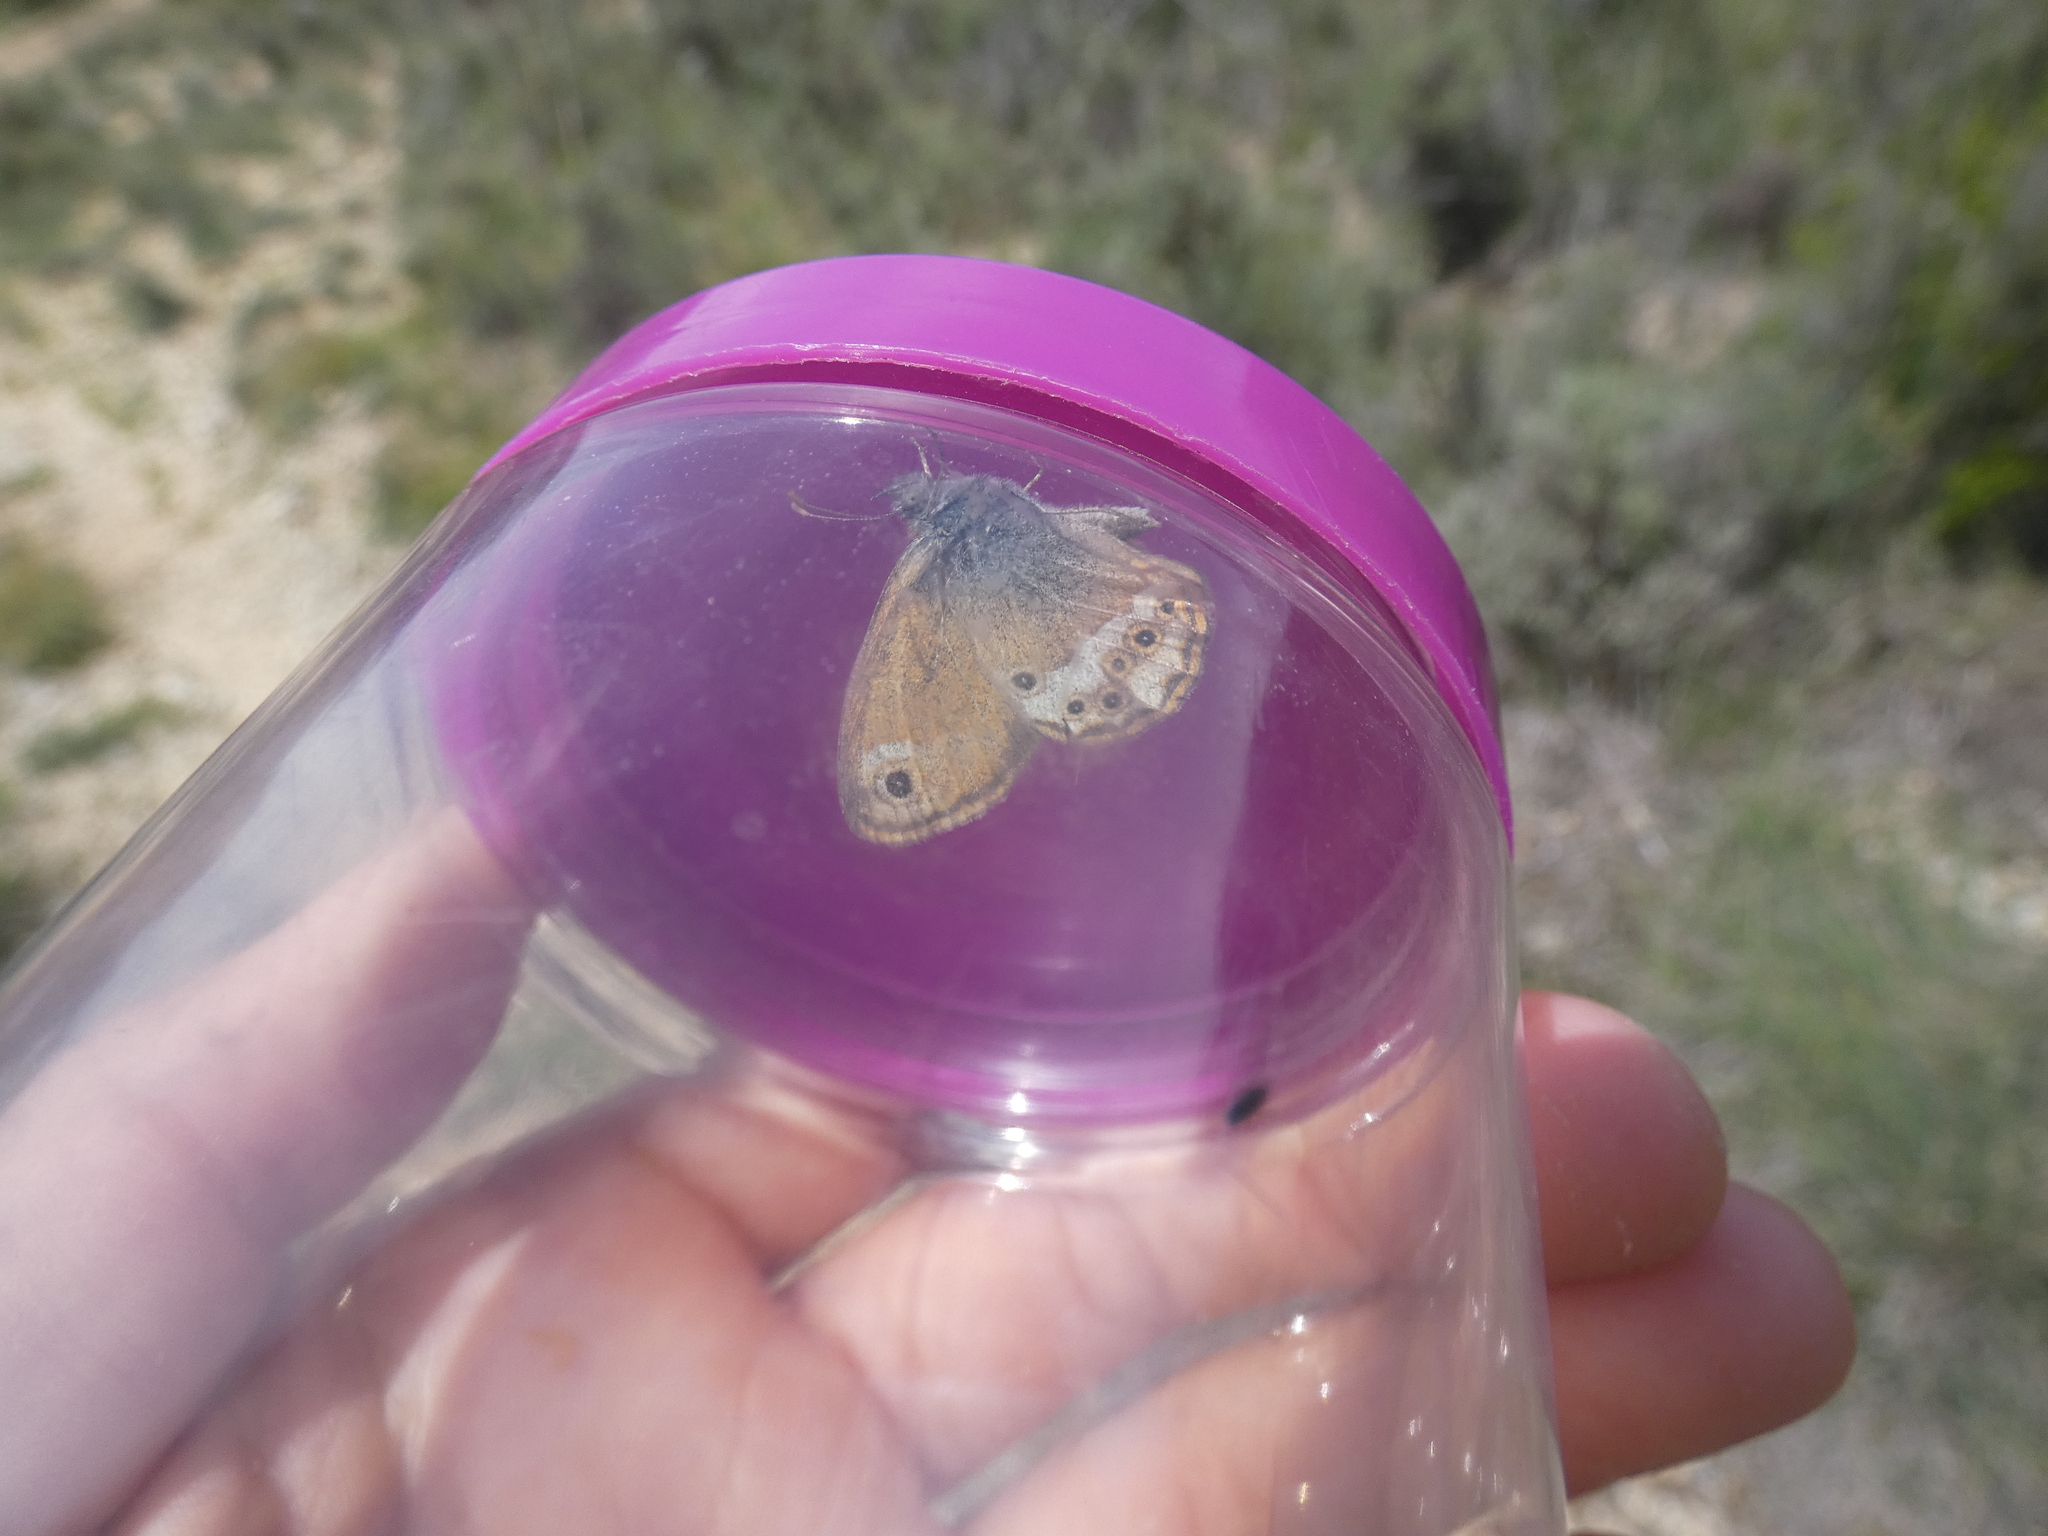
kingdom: Animalia
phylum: Arthropoda
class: Insecta
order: Lepidoptera
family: Nymphalidae
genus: Coenonympha
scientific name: Coenonympha dorus
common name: Dusky heath
